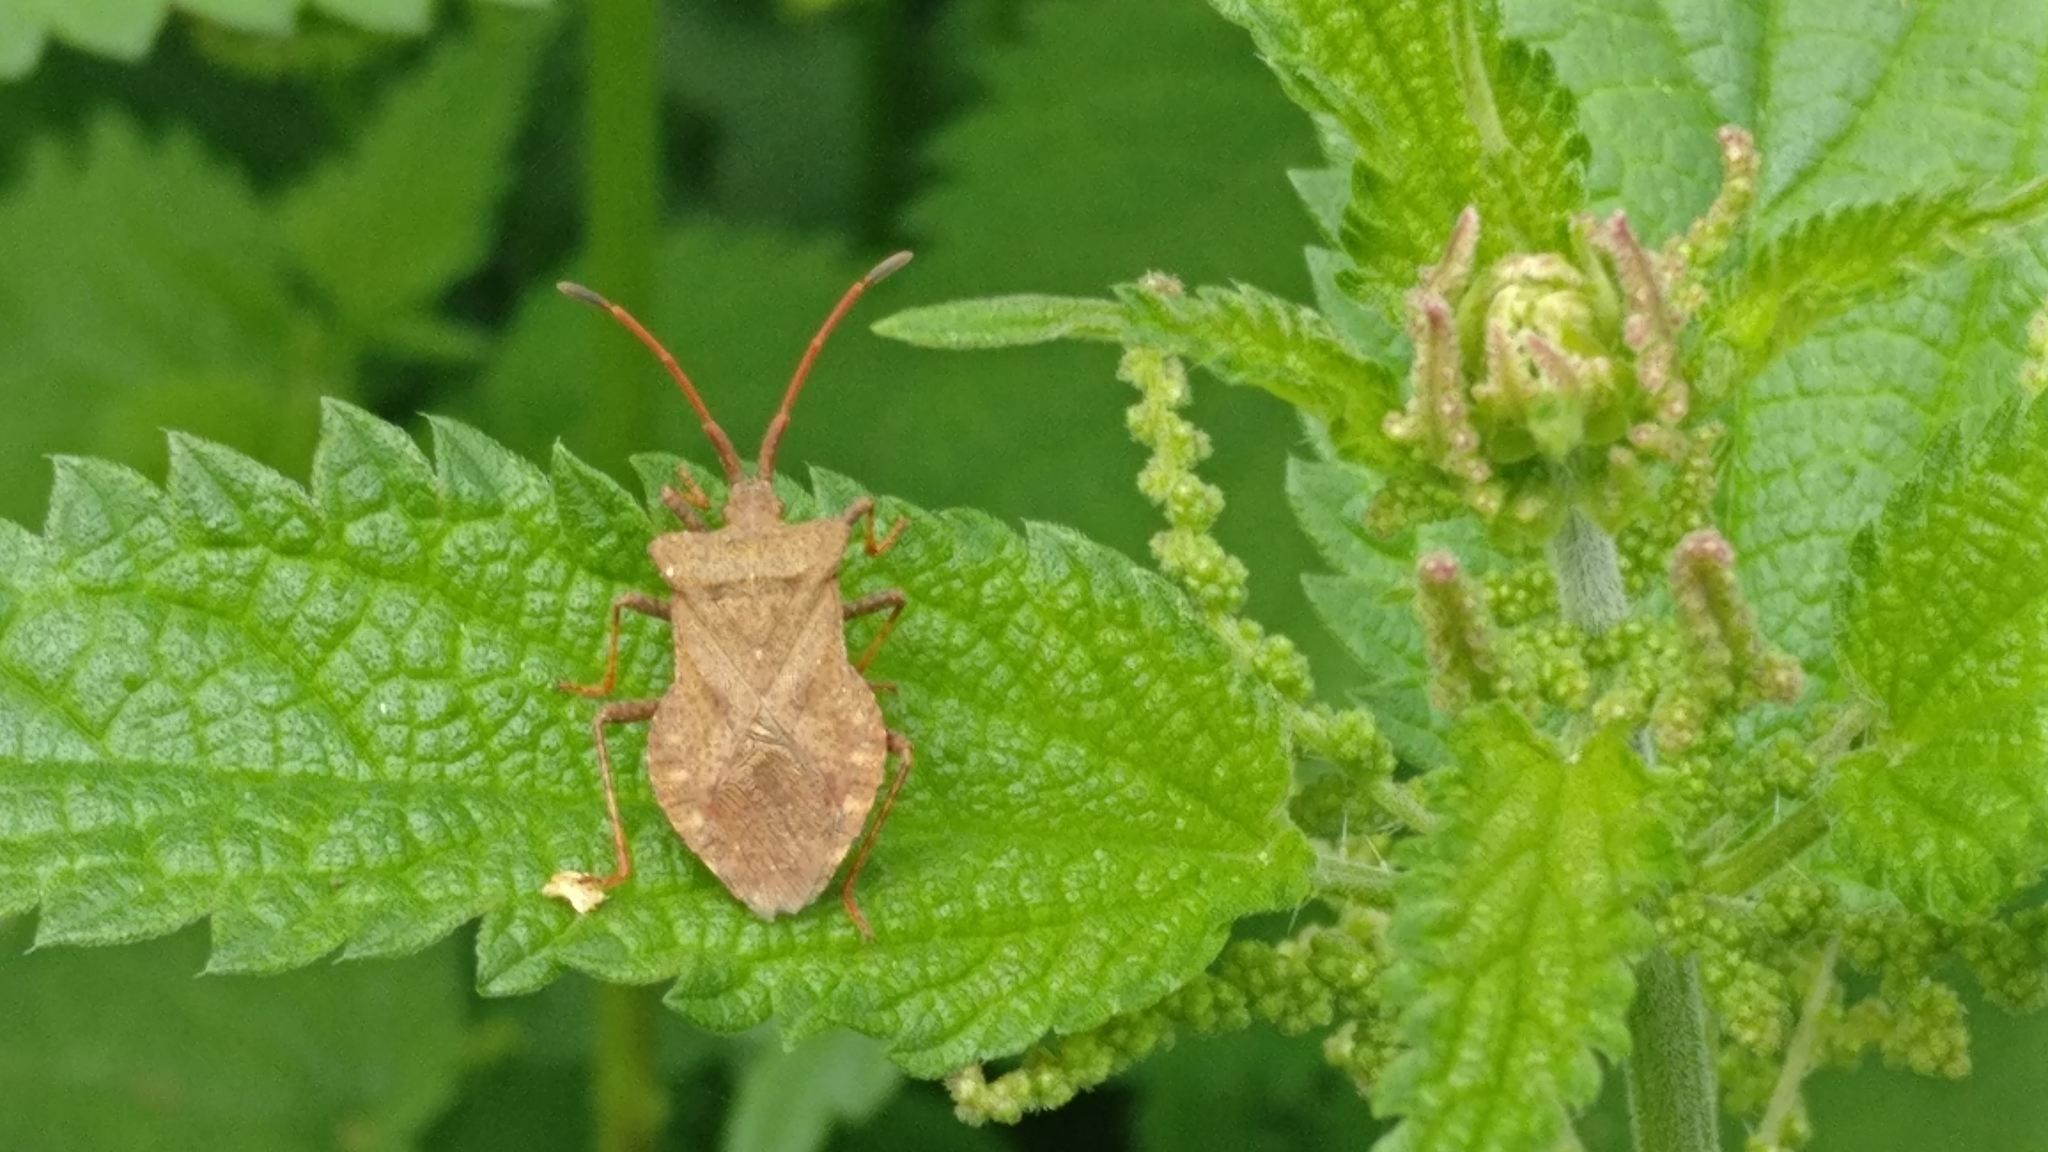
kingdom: Animalia
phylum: Arthropoda
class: Insecta
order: Hemiptera
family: Coreidae
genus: Coreus
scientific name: Coreus marginatus
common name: Dock bug
